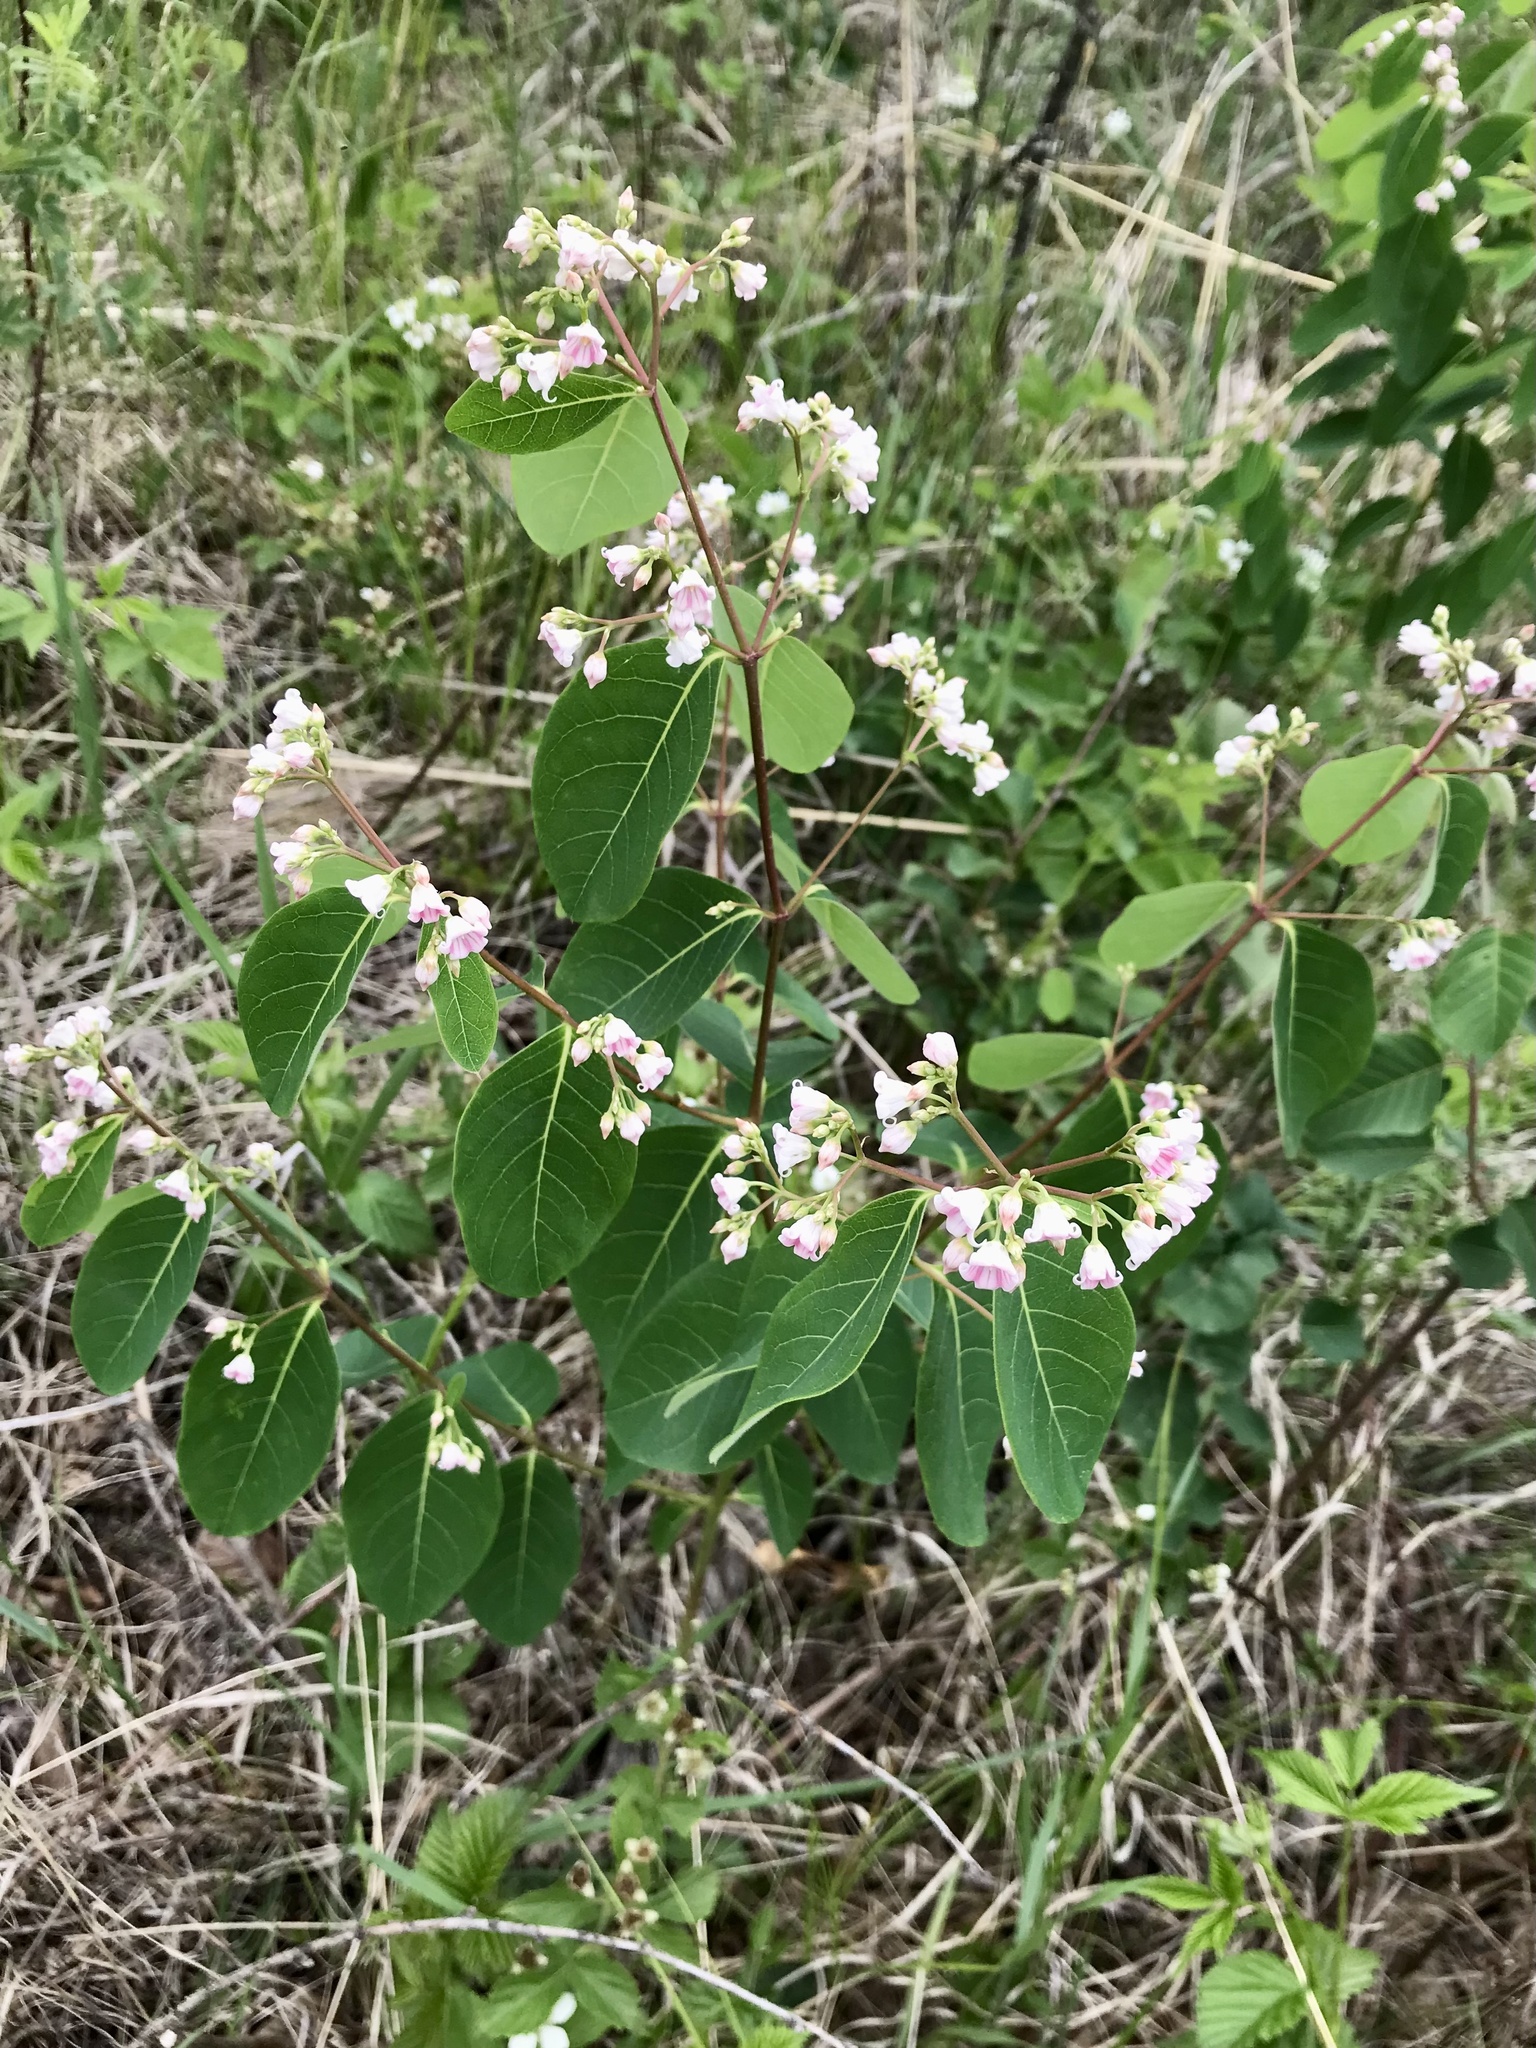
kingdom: Plantae
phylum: Tracheophyta
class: Magnoliopsida
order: Gentianales
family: Apocynaceae
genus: Apocynum
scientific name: Apocynum androsaemifolium
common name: Spreading dogbane
